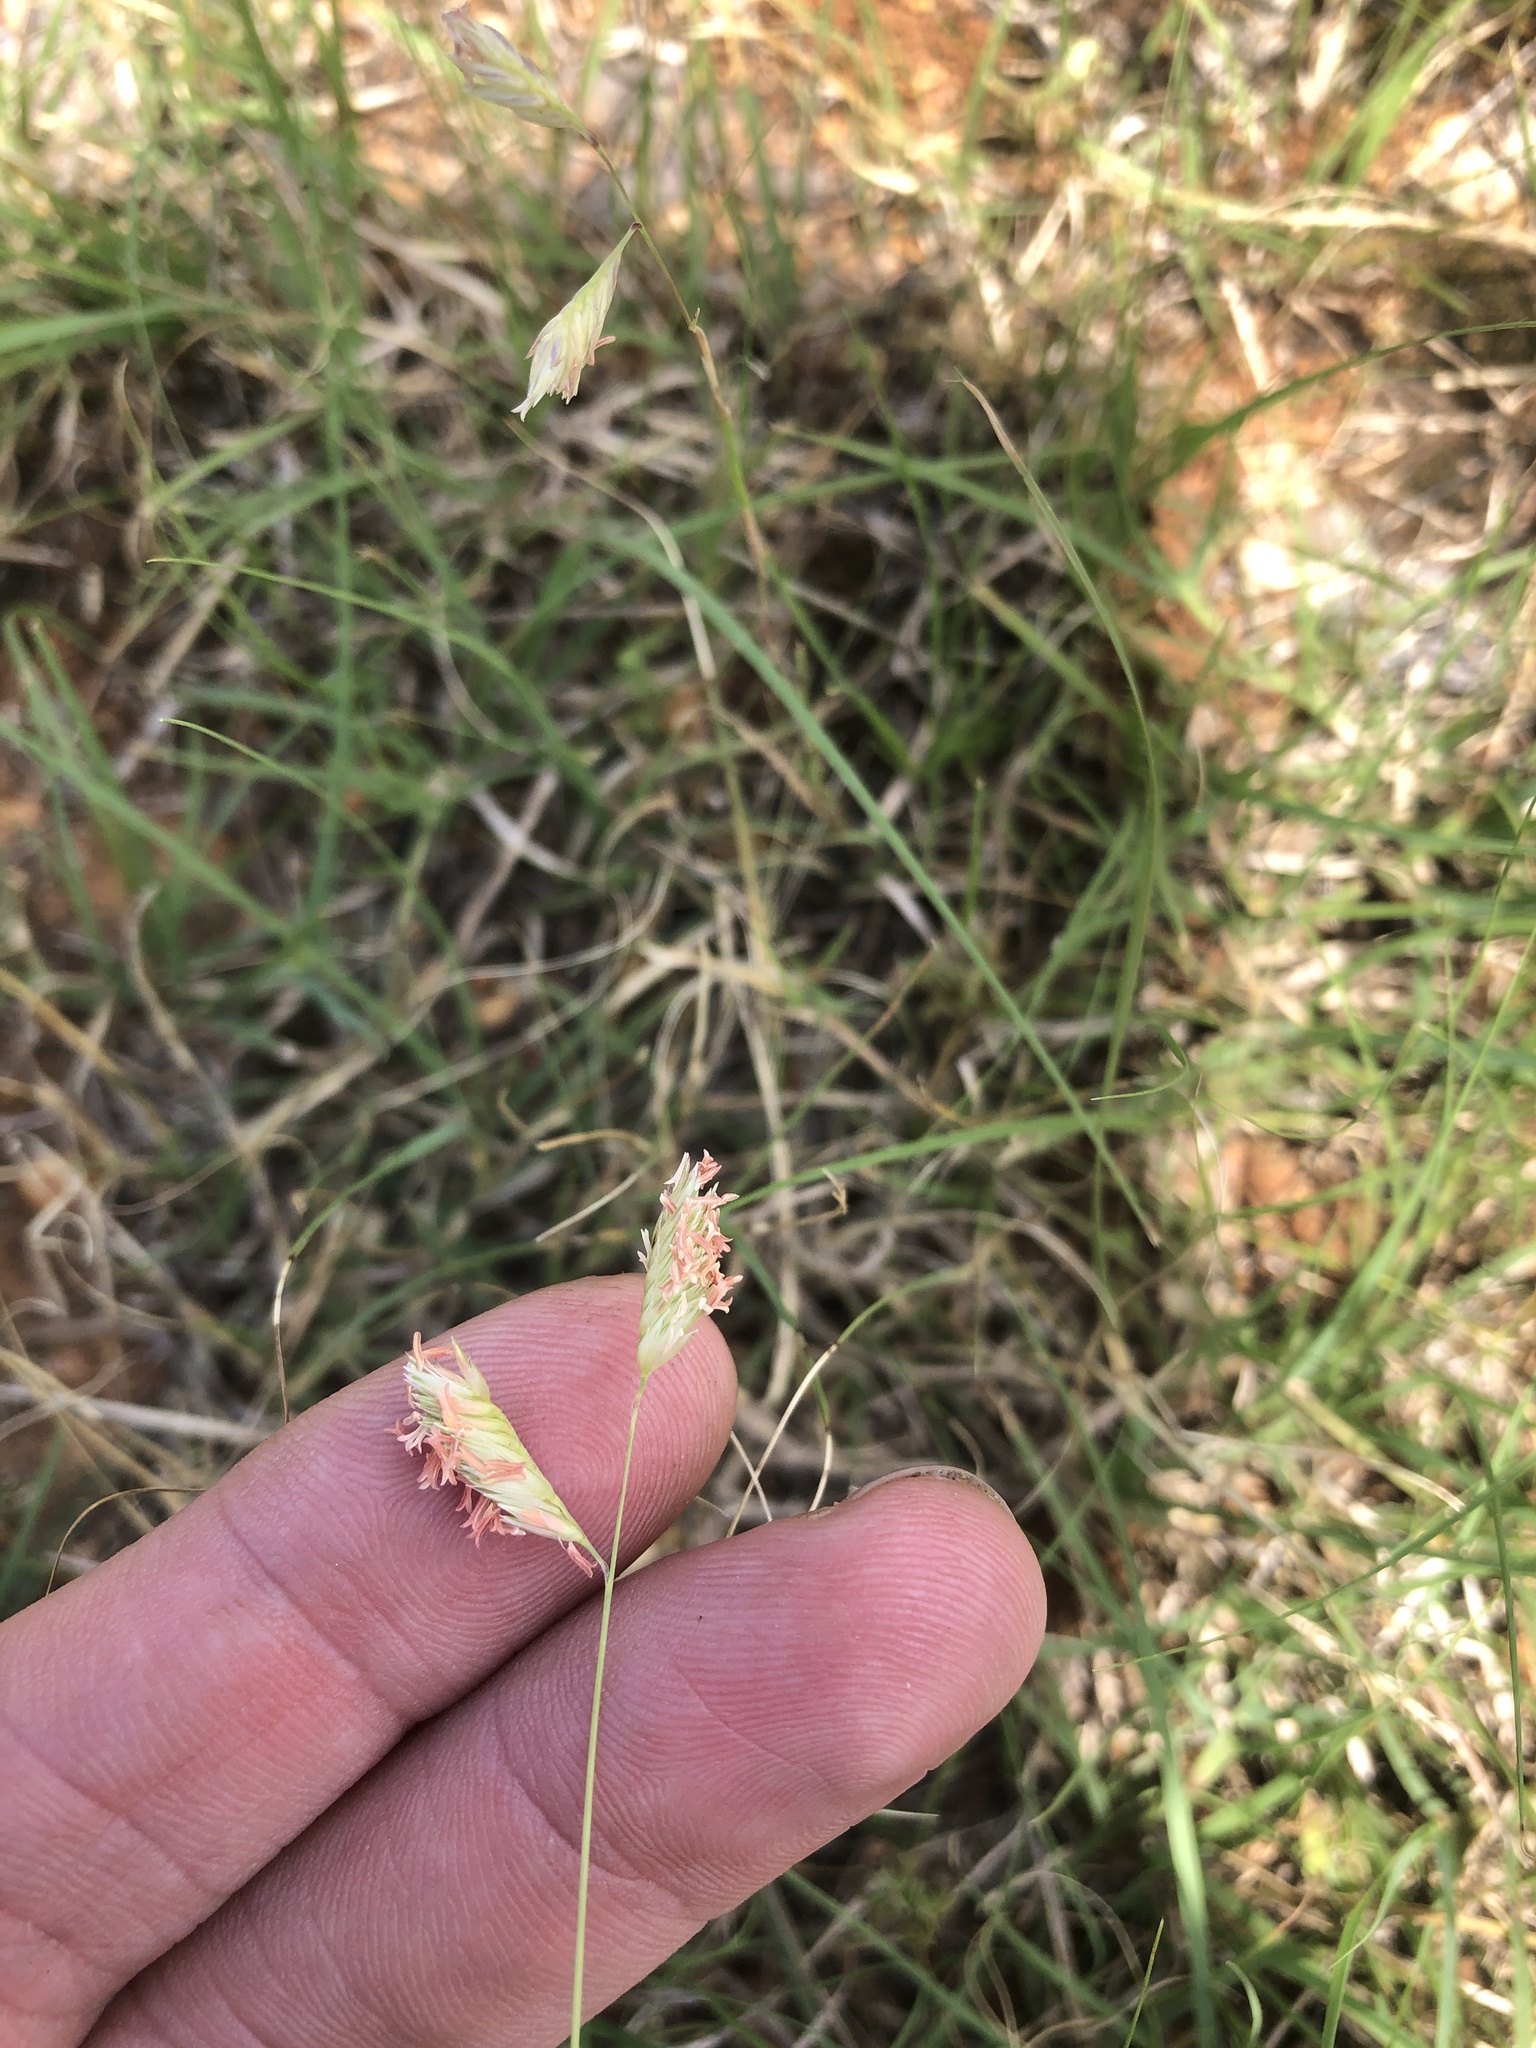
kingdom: Plantae
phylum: Tracheophyta
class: Liliopsida
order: Poales
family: Poaceae
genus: Bouteloua
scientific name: Bouteloua dactyloides
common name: Buffalo grass
